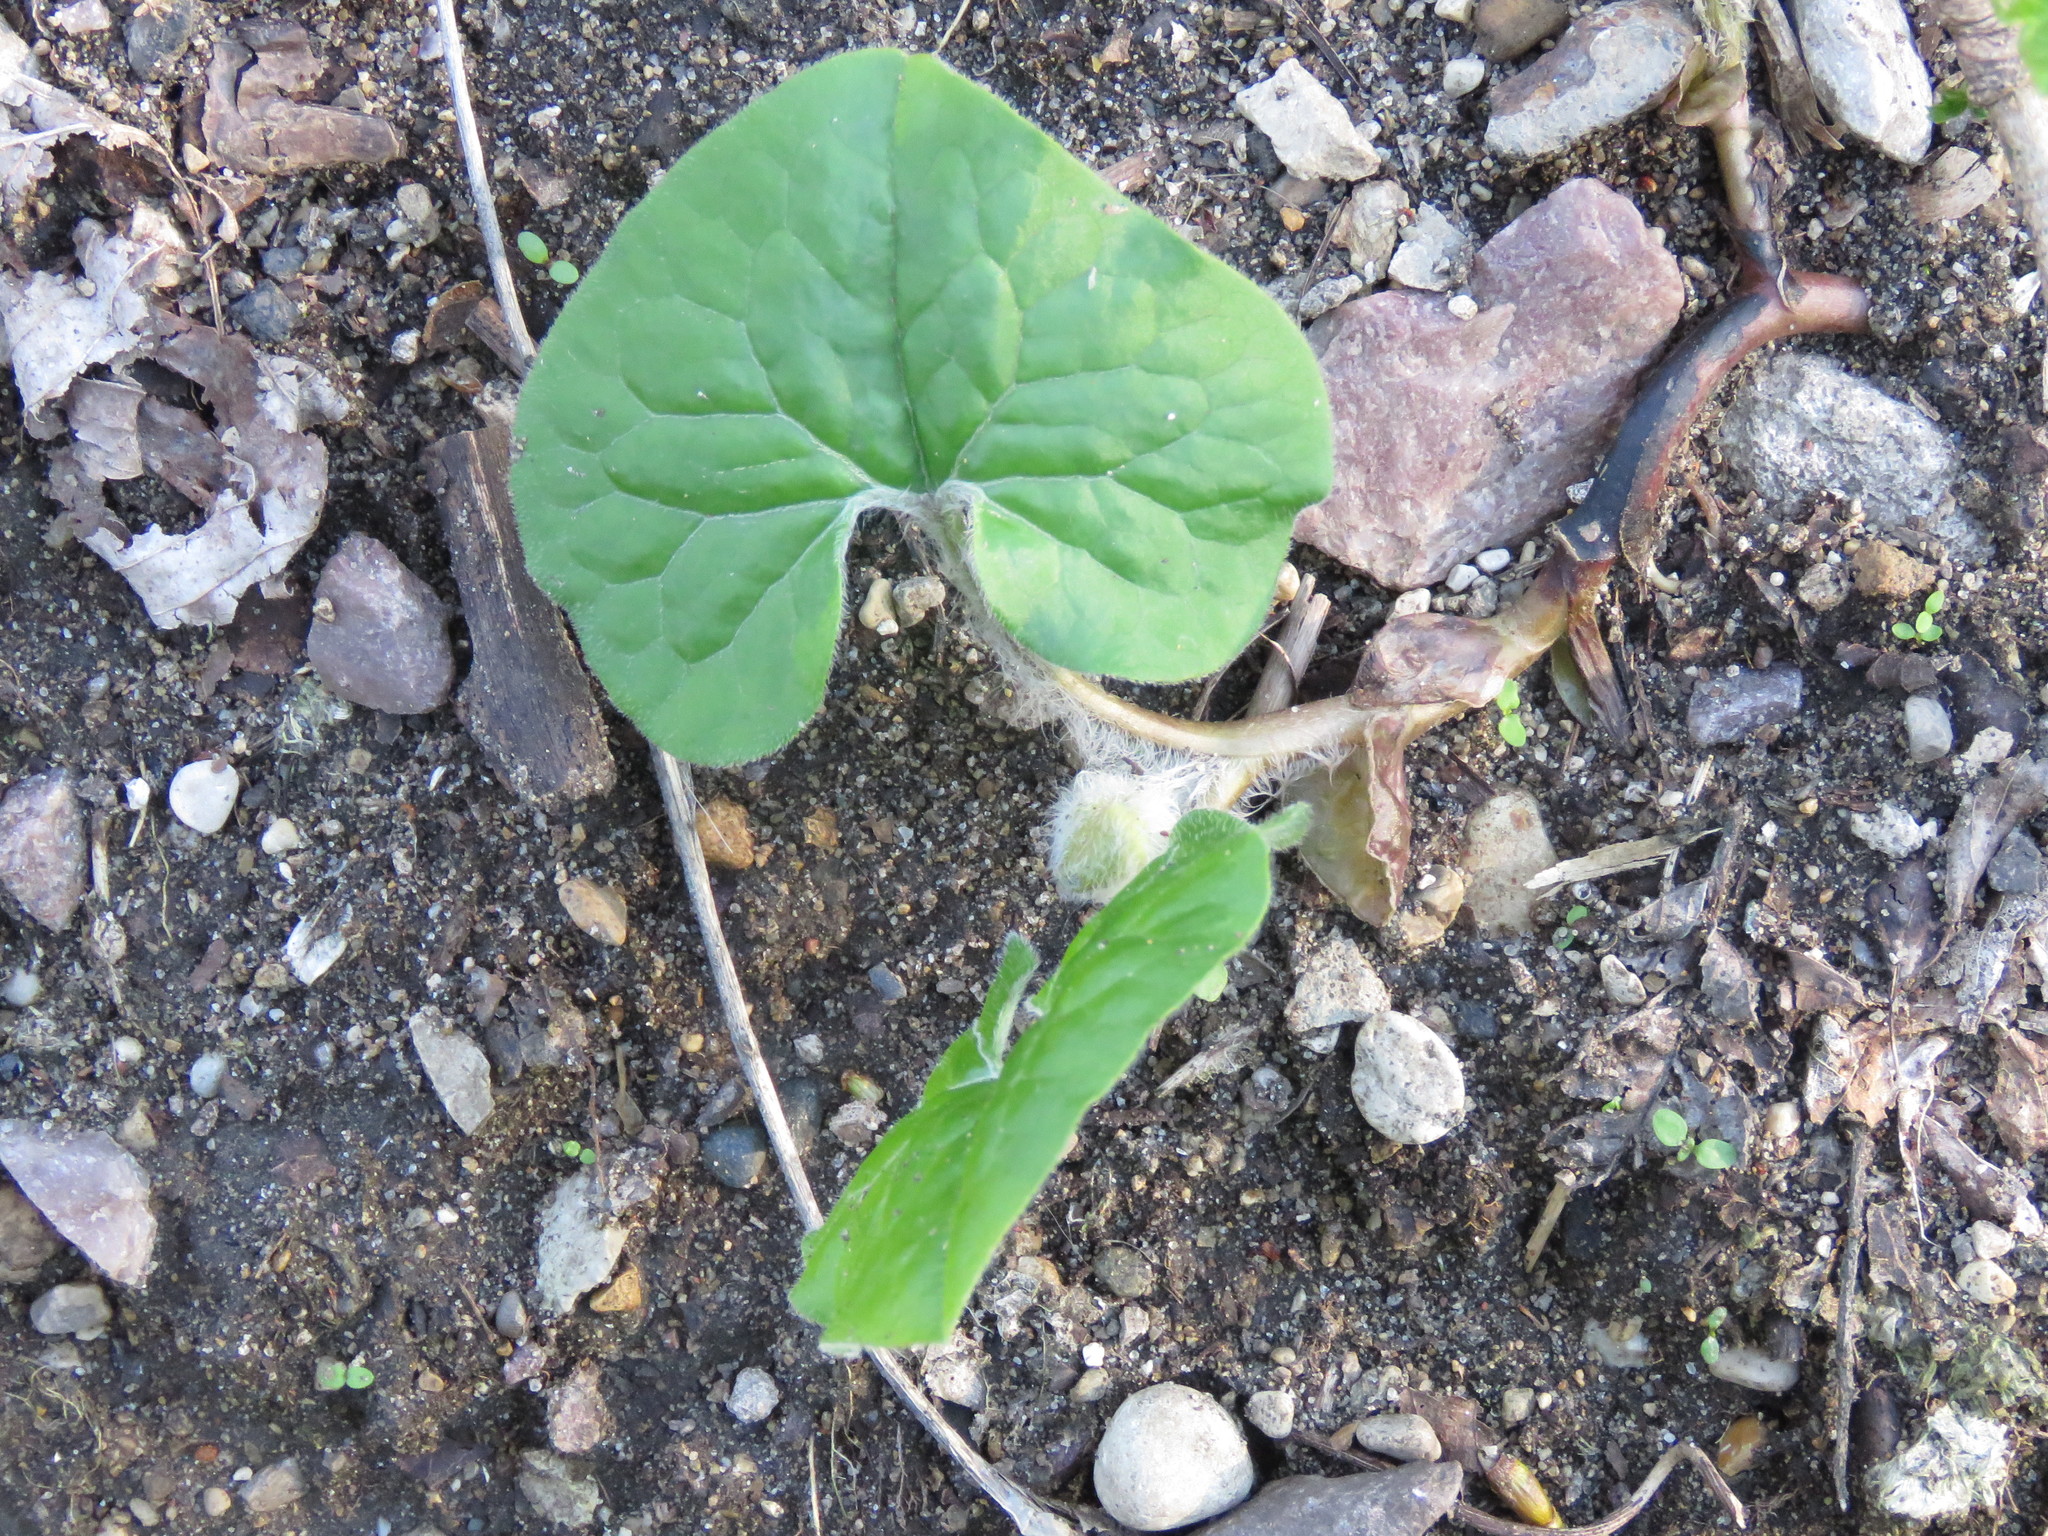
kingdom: Plantae
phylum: Tracheophyta
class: Magnoliopsida
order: Piperales
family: Aristolochiaceae
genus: Asarum
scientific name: Asarum canadense
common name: Wild ginger
